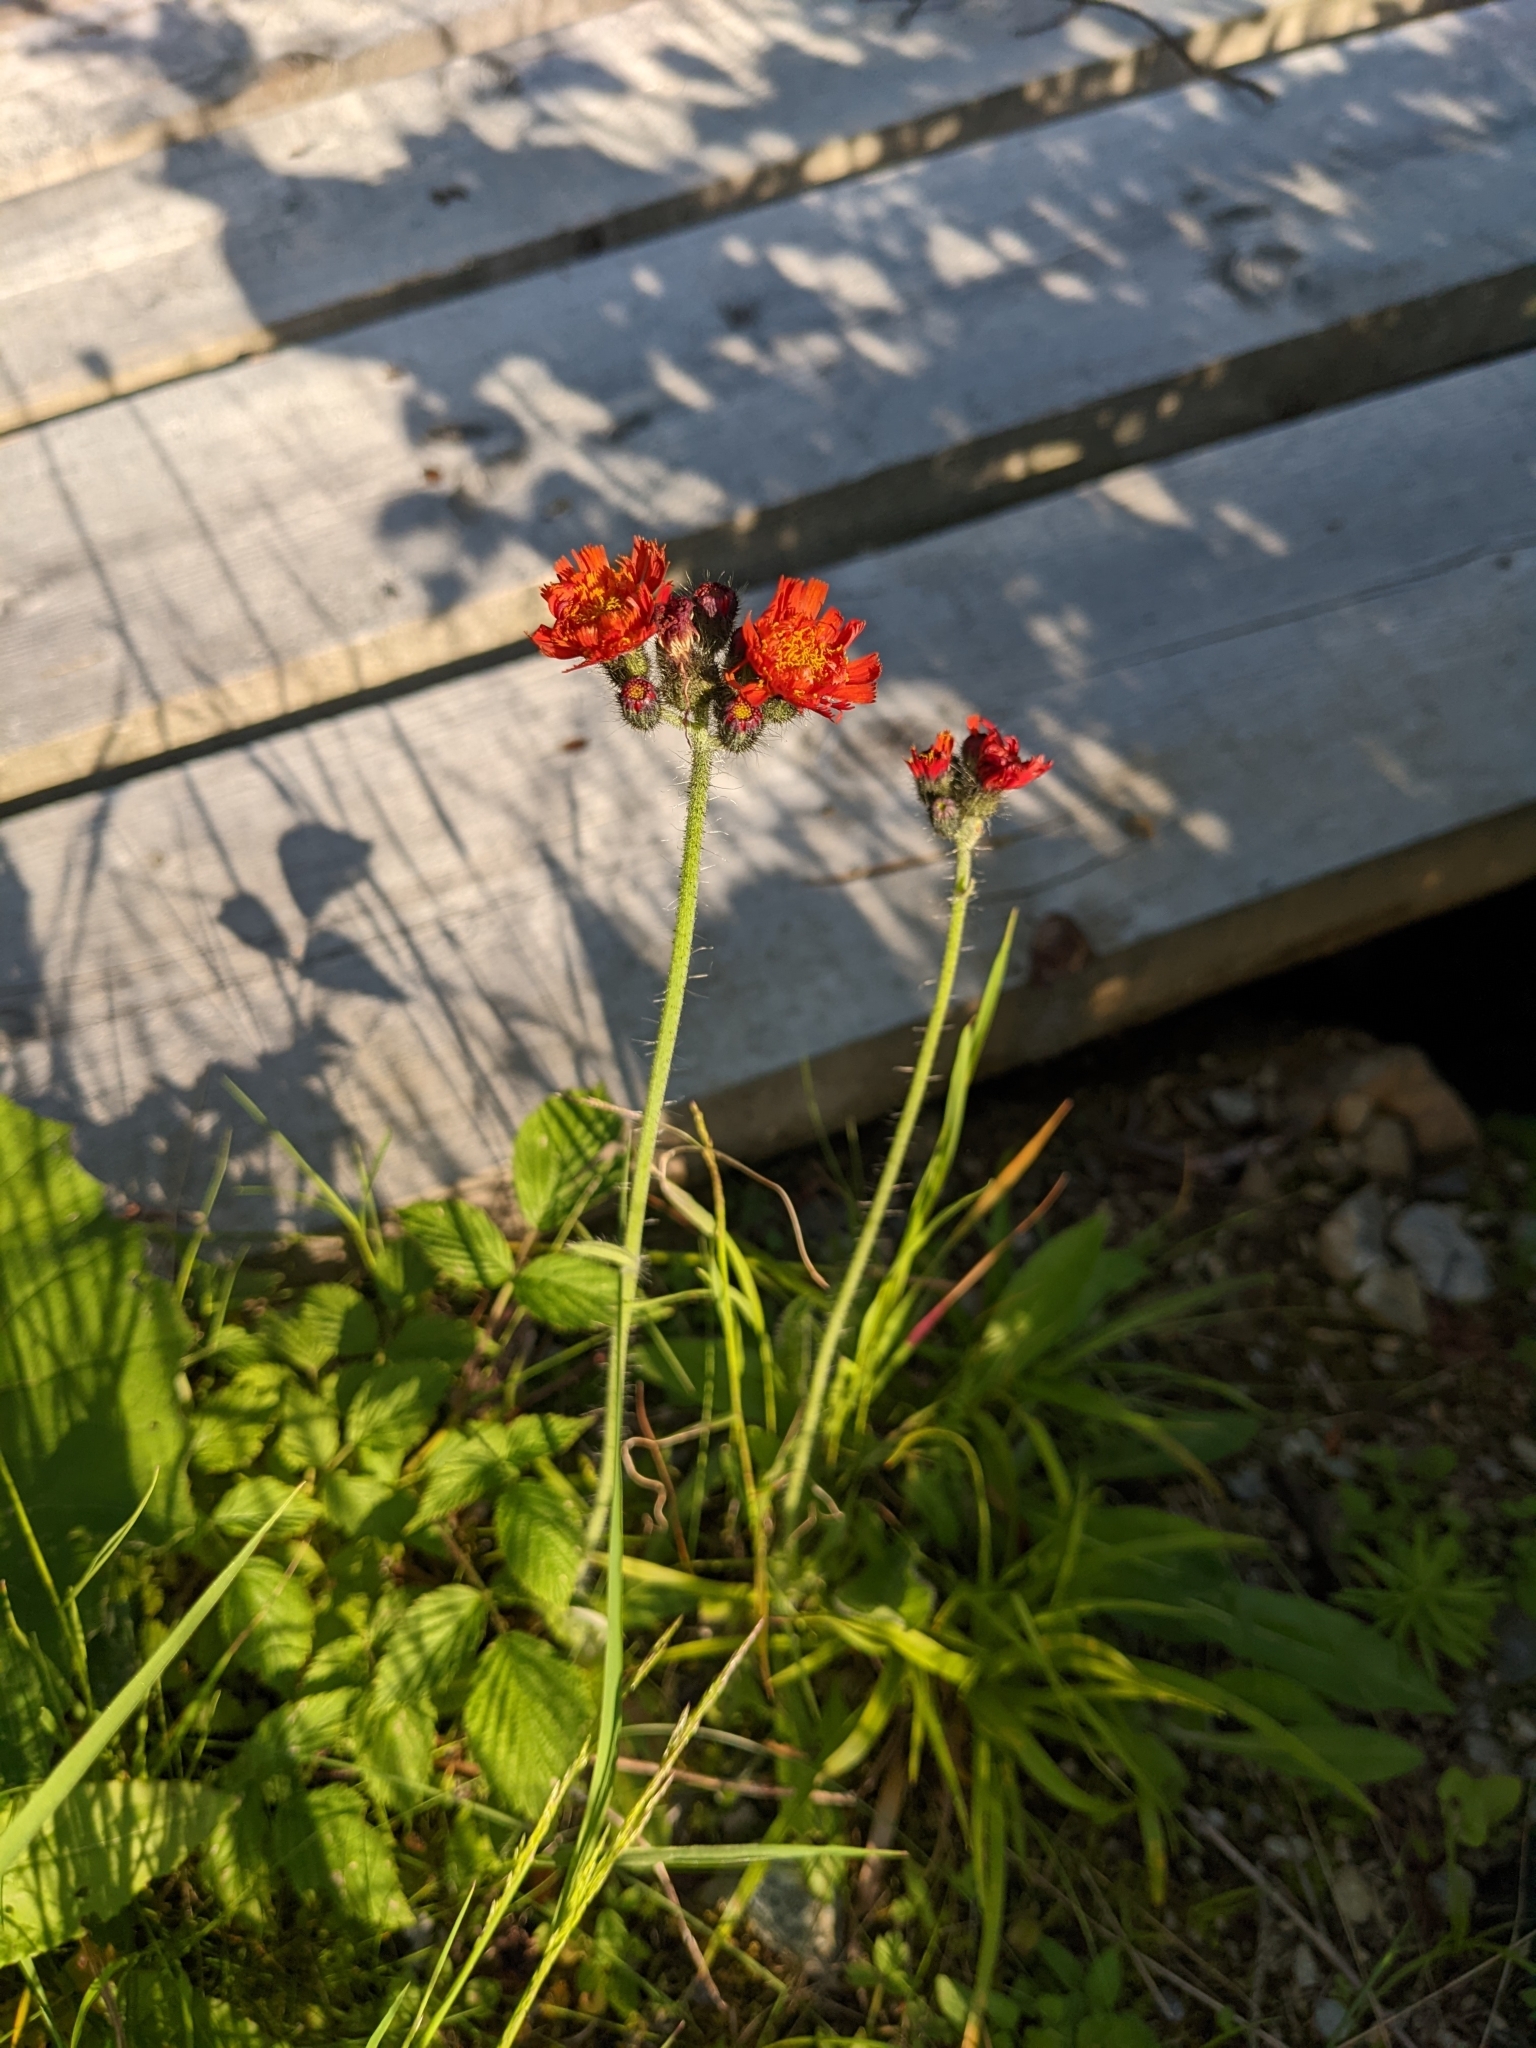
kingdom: Plantae
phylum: Tracheophyta
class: Magnoliopsida
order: Asterales
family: Asteraceae
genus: Pilosella
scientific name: Pilosella aurantiaca
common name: Fox-and-cubs
